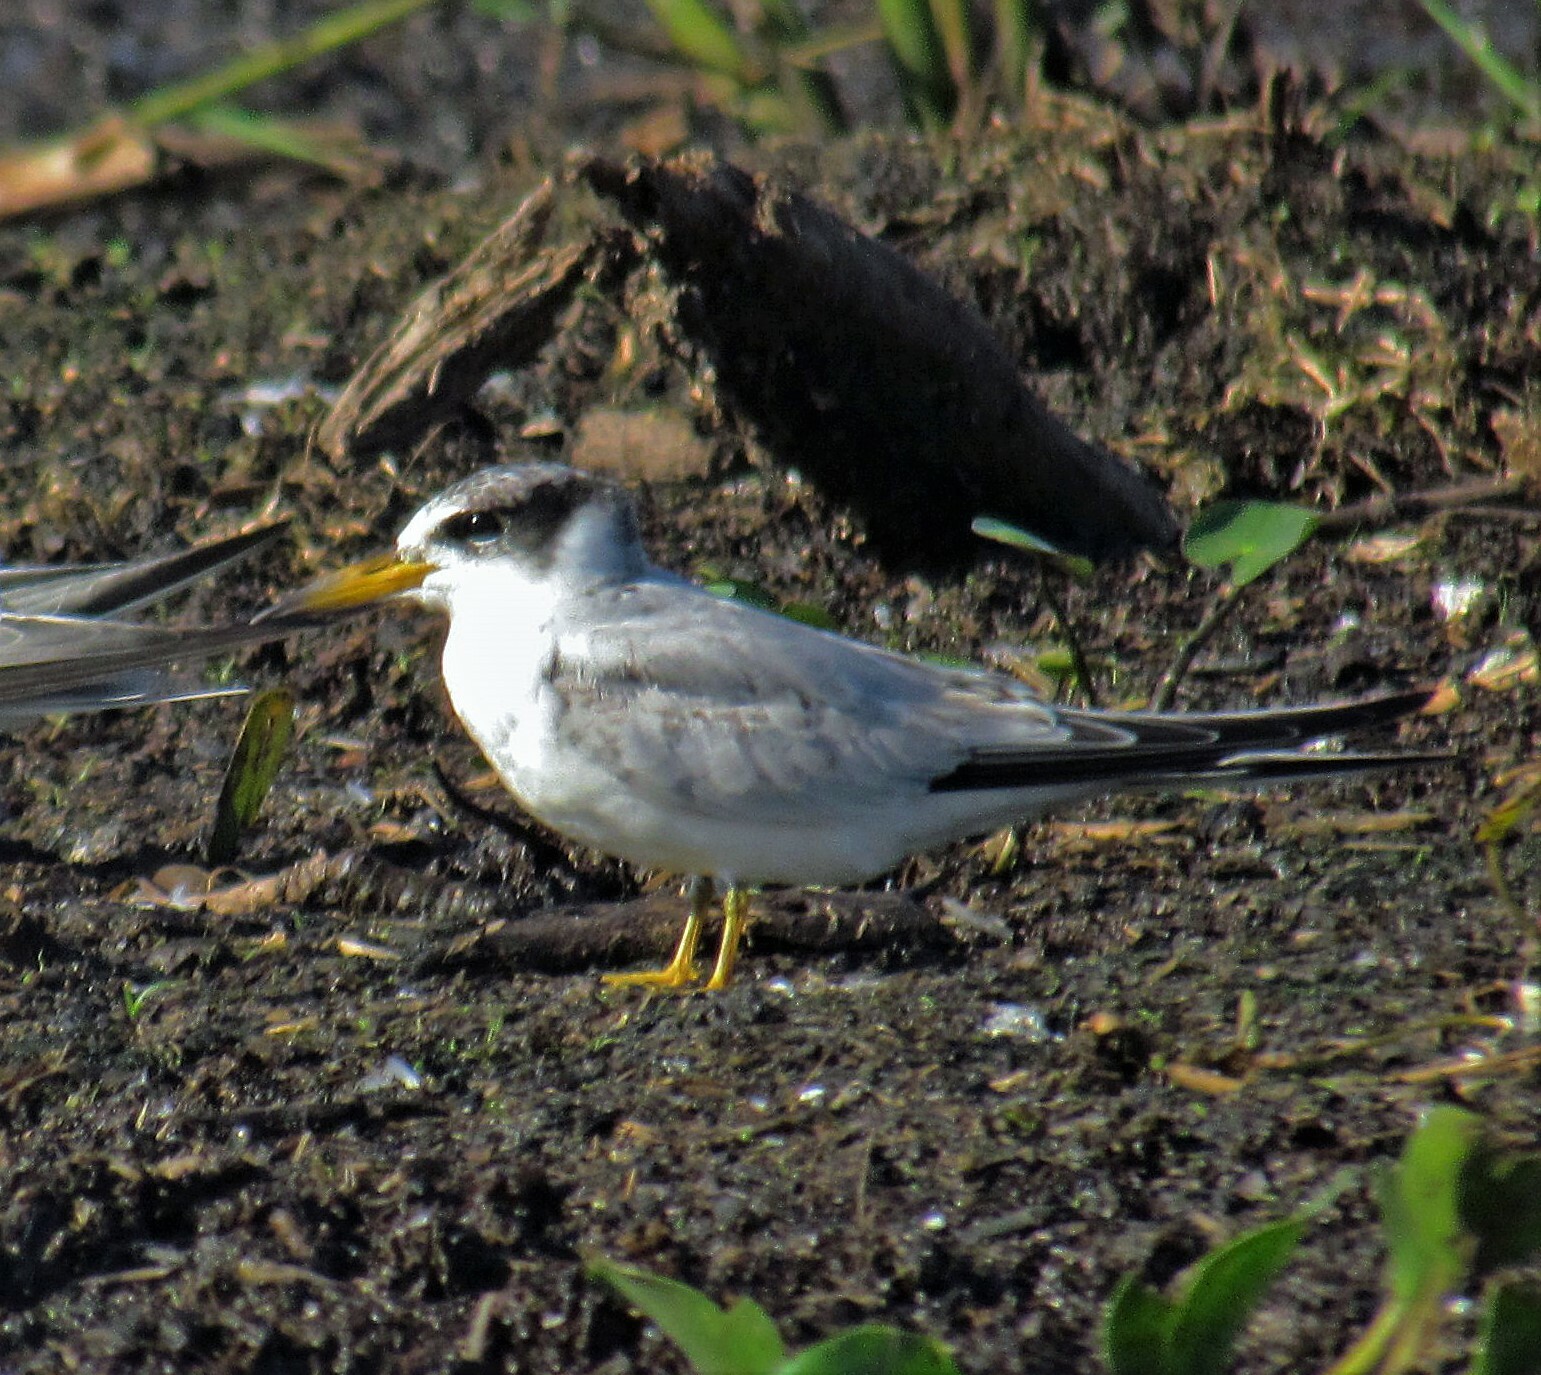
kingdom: Animalia
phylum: Chordata
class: Aves
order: Charadriiformes
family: Laridae
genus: Sternula
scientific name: Sternula superciliaris
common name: Yellow-billed tern
